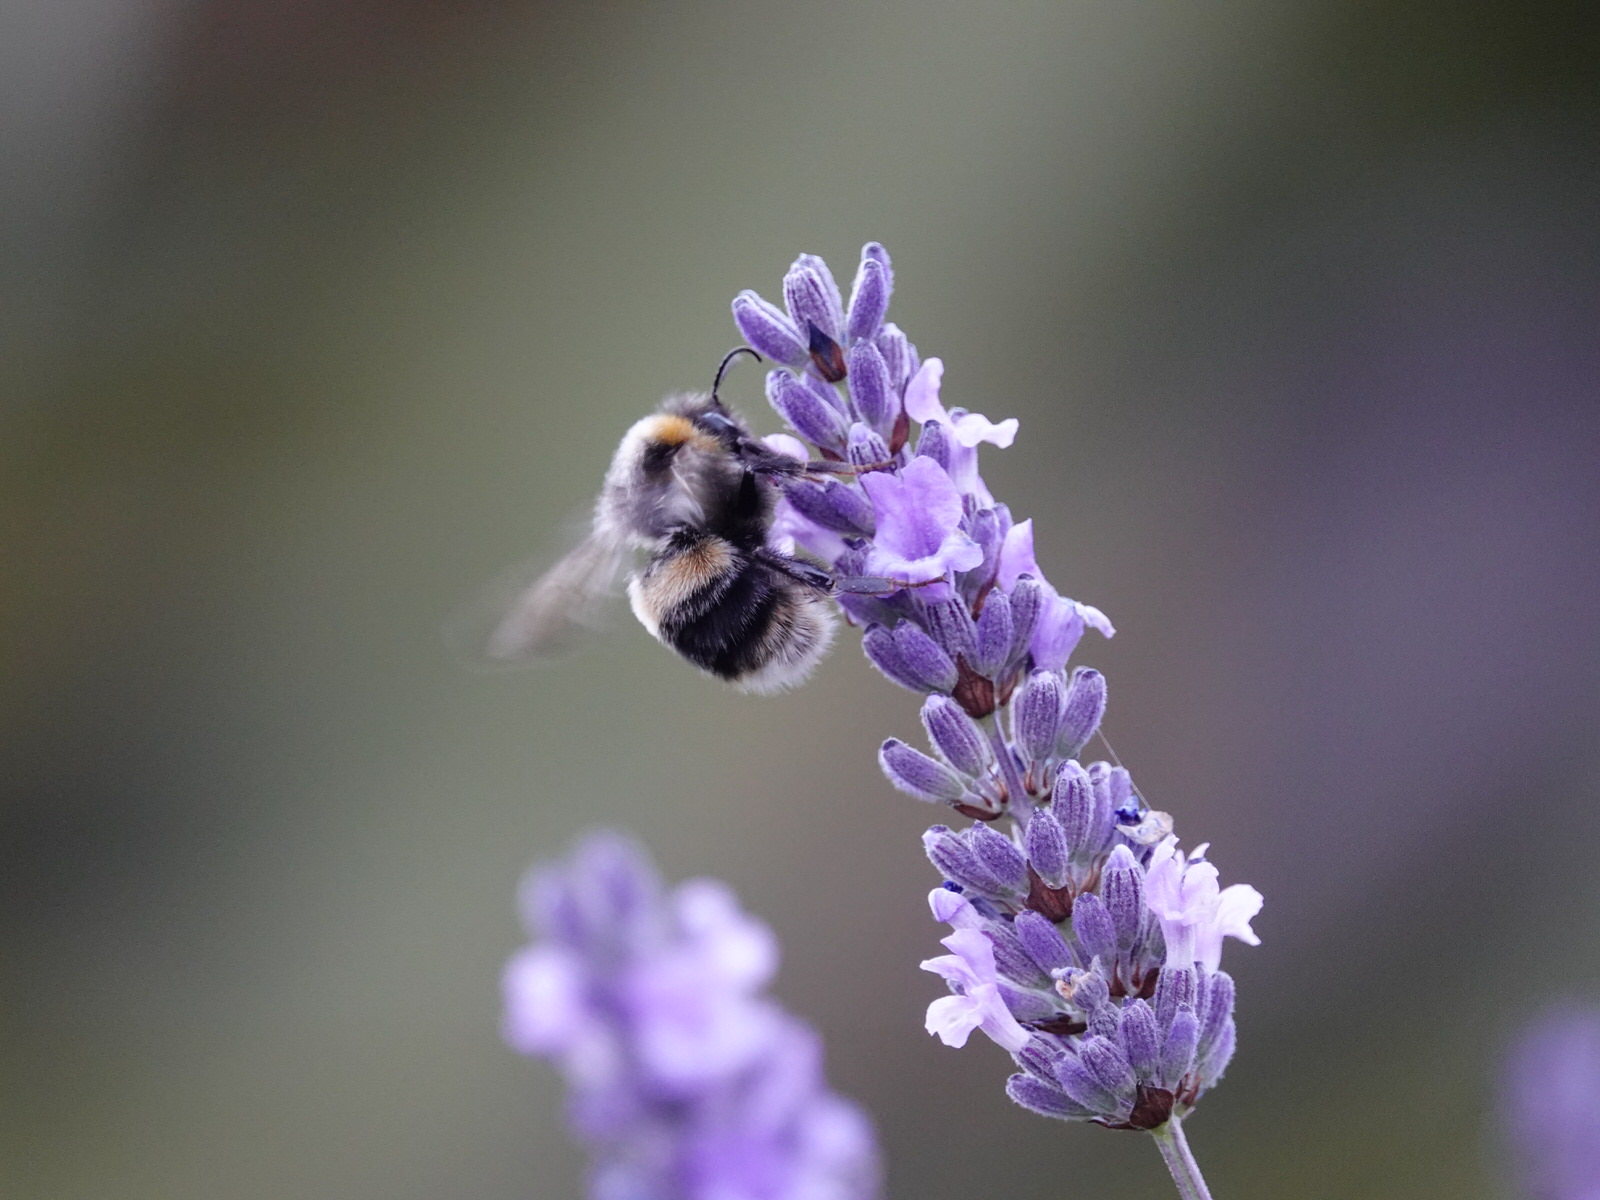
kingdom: Animalia
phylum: Arthropoda
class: Insecta
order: Hymenoptera
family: Apidae
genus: Bombus
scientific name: Bombus terrestris
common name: Buff-tailed bumblebee
